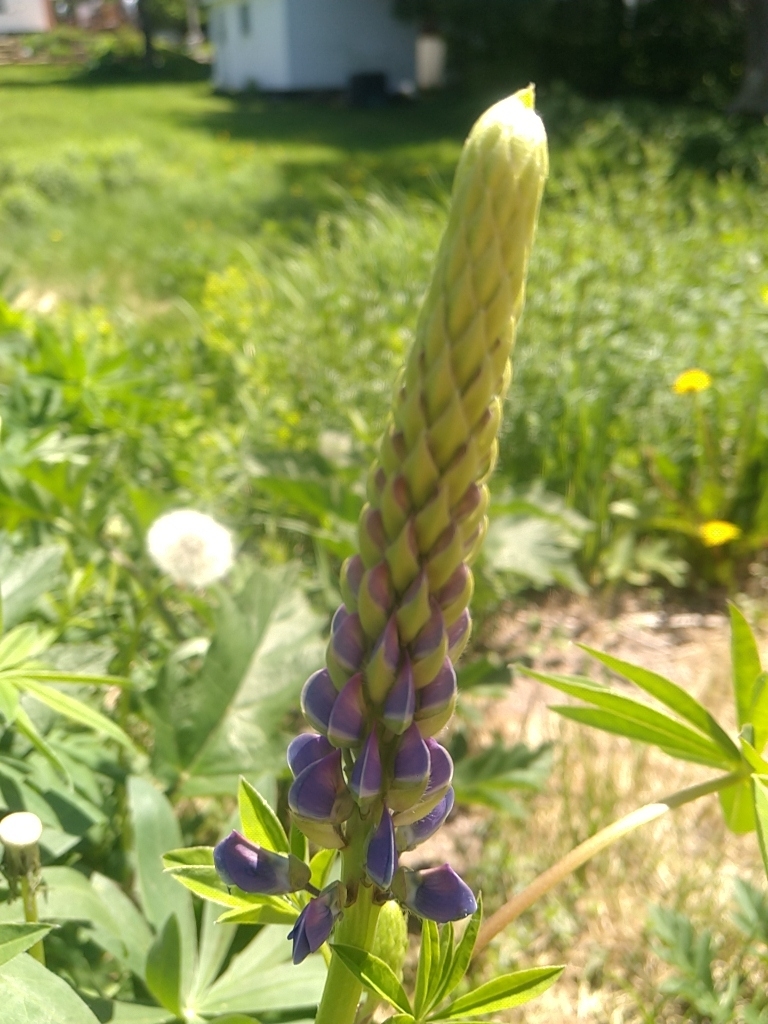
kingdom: Plantae
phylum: Tracheophyta
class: Magnoliopsida
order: Fabales
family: Fabaceae
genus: Lupinus
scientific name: Lupinus polyphyllus
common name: Garden lupin
